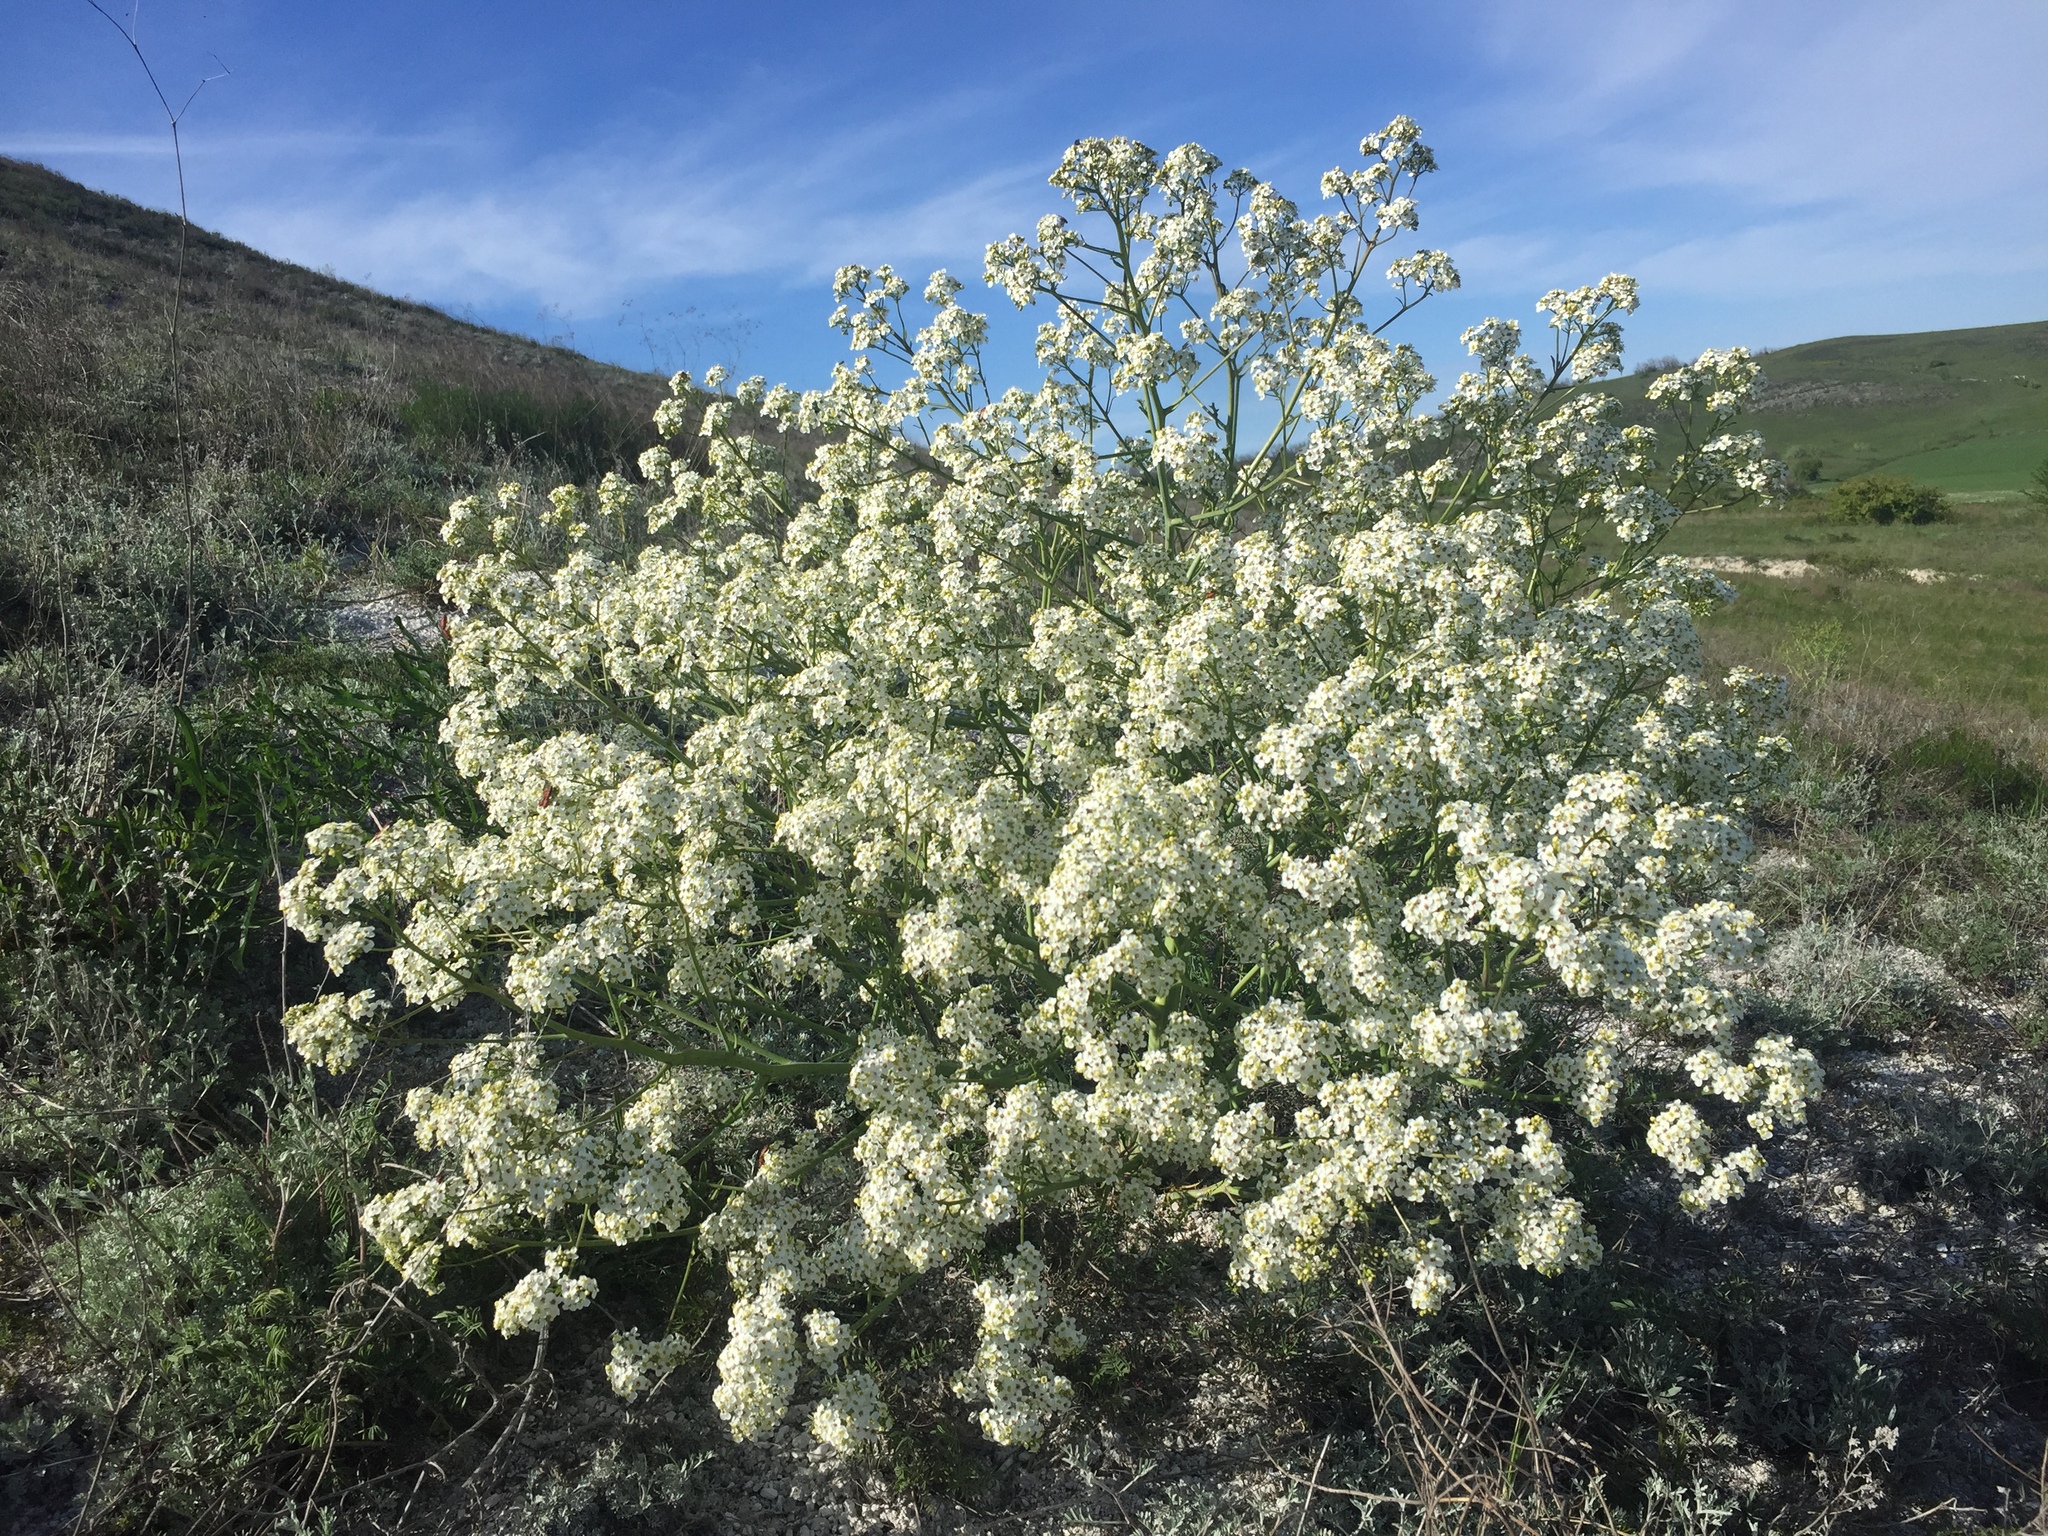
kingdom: Plantae
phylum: Tracheophyta
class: Magnoliopsida
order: Brassicales
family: Brassicaceae
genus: Crambe
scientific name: Crambe tataria
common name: Tartarian breadplant
